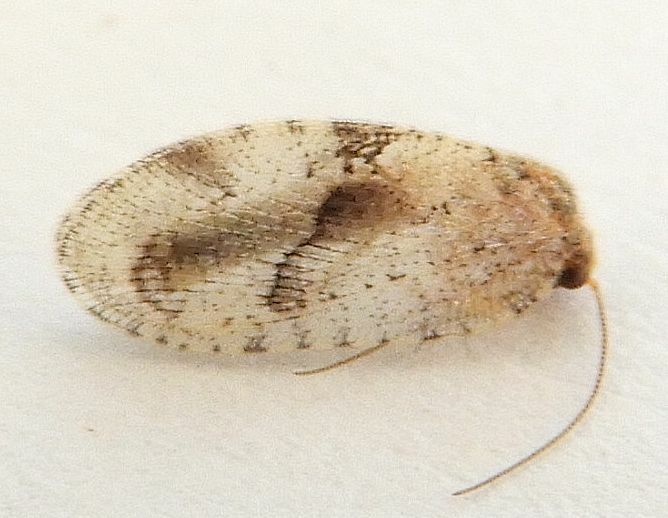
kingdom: Animalia
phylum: Arthropoda
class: Insecta
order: Neuroptera
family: Hemerobiidae
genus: Megalomus
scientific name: Megalomus moestus
